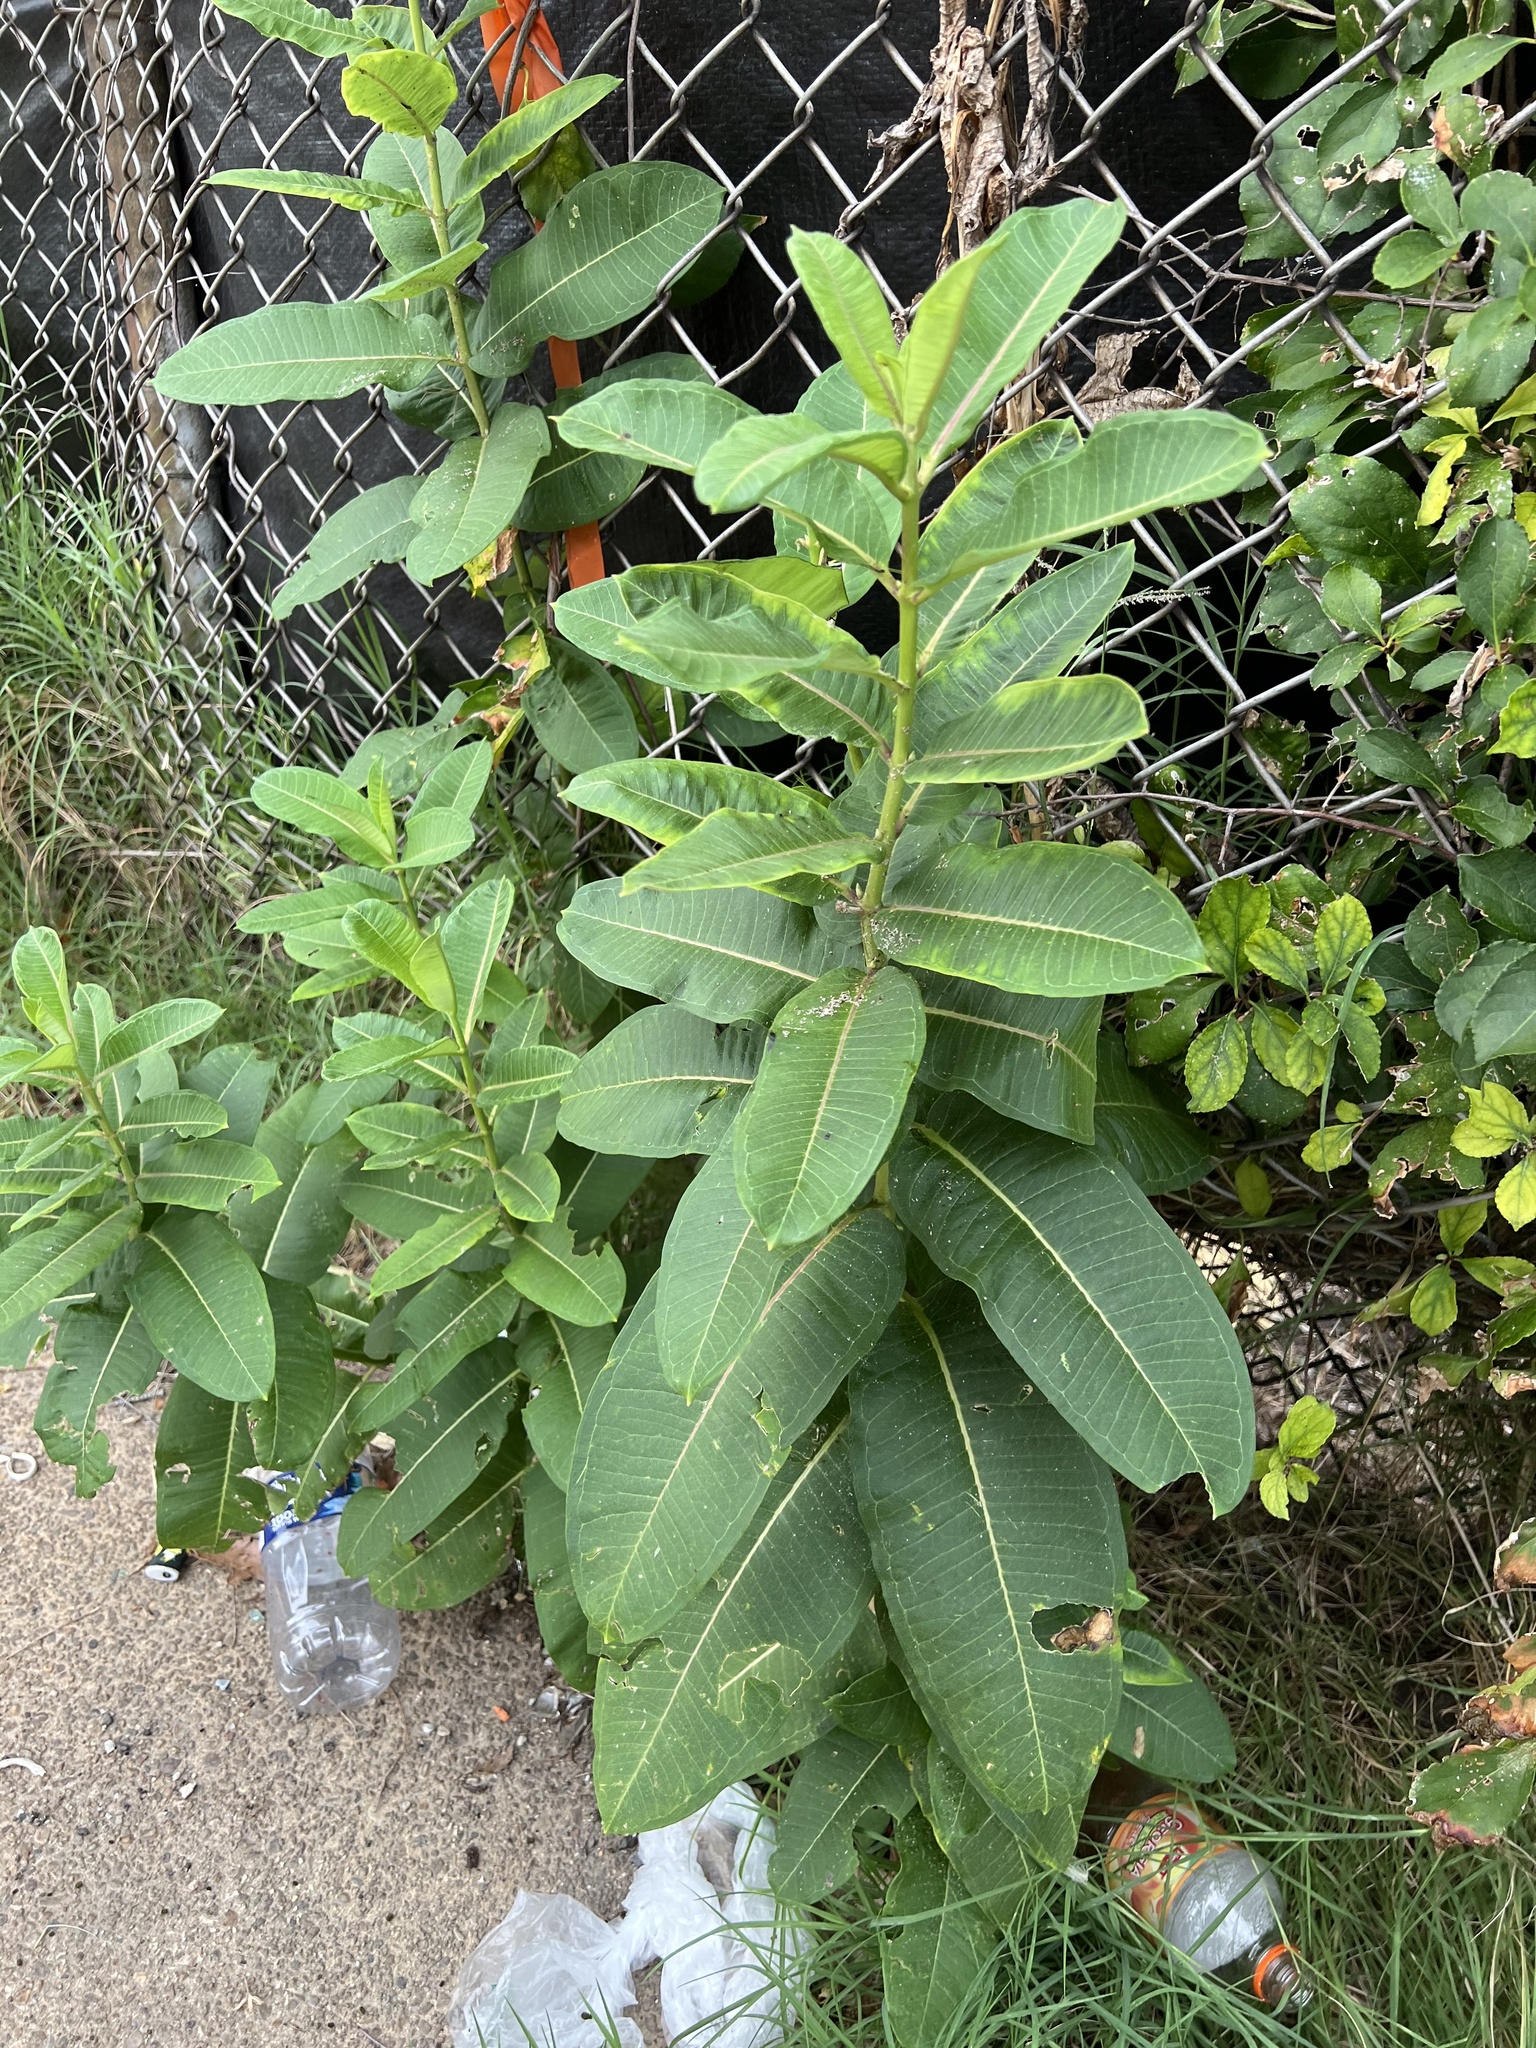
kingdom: Plantae
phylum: Tracheophyta
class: Magnoliopsida
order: Gentianales
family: Apocynaceae
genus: Asclepias
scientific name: Asclepias syriaca
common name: Common milkweed
